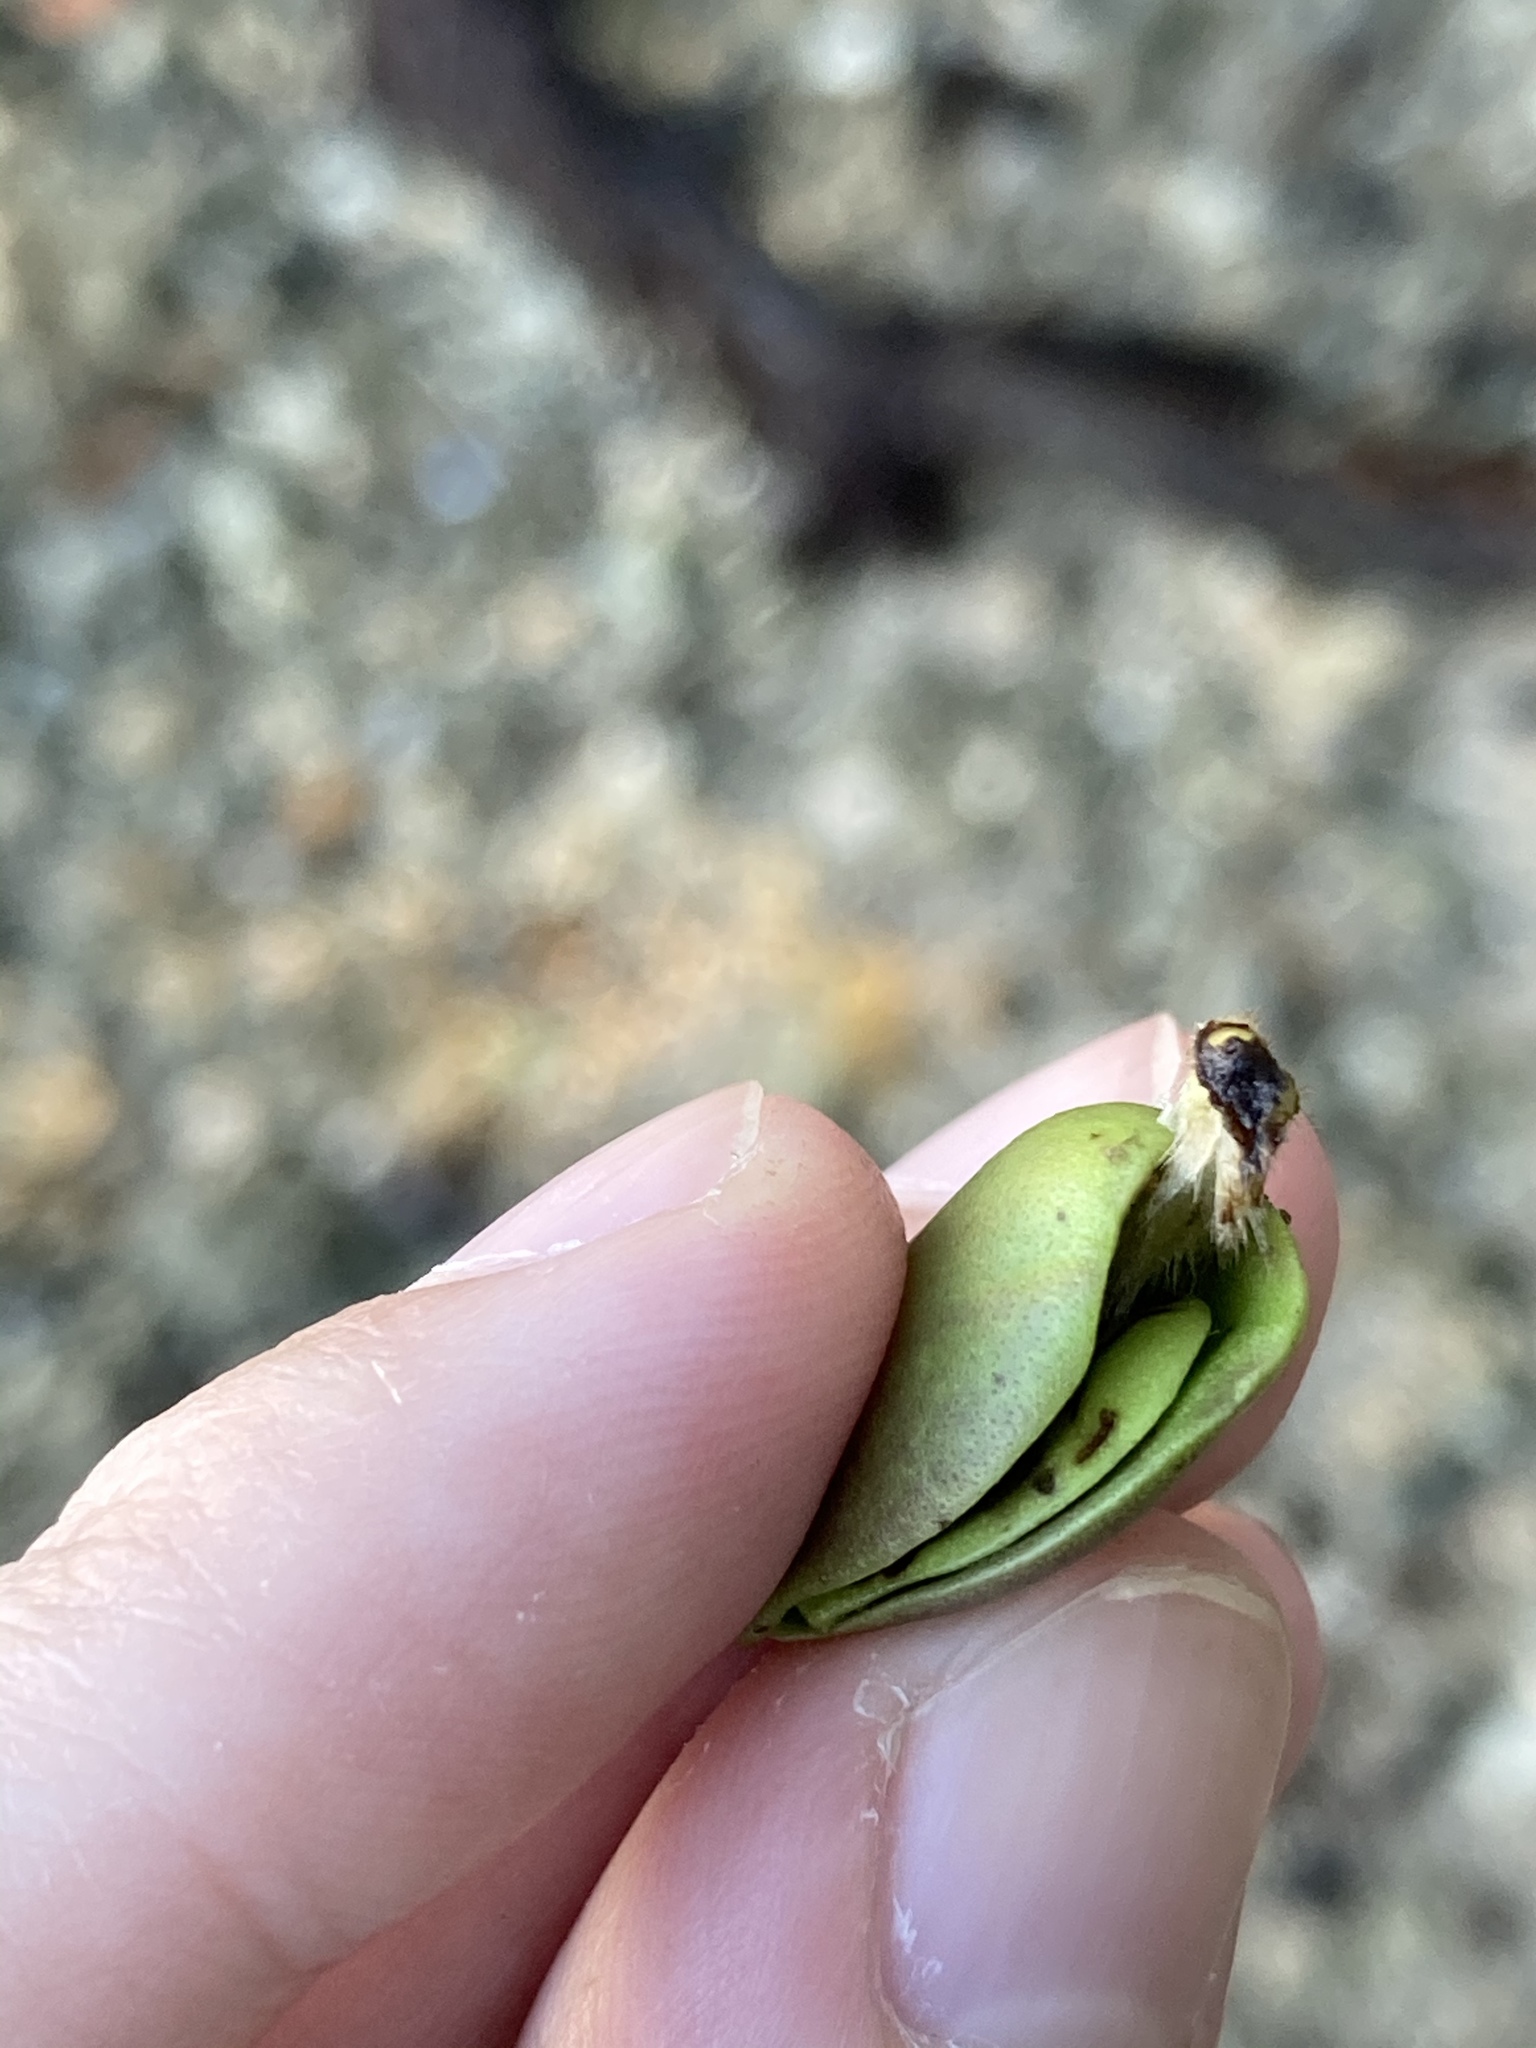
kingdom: Plantae
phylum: Tracheophyta
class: Magnoliopsida
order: Lamiales
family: Acanthaceae
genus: Avicennia
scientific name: Avicennia germinans
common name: Black mangrove
